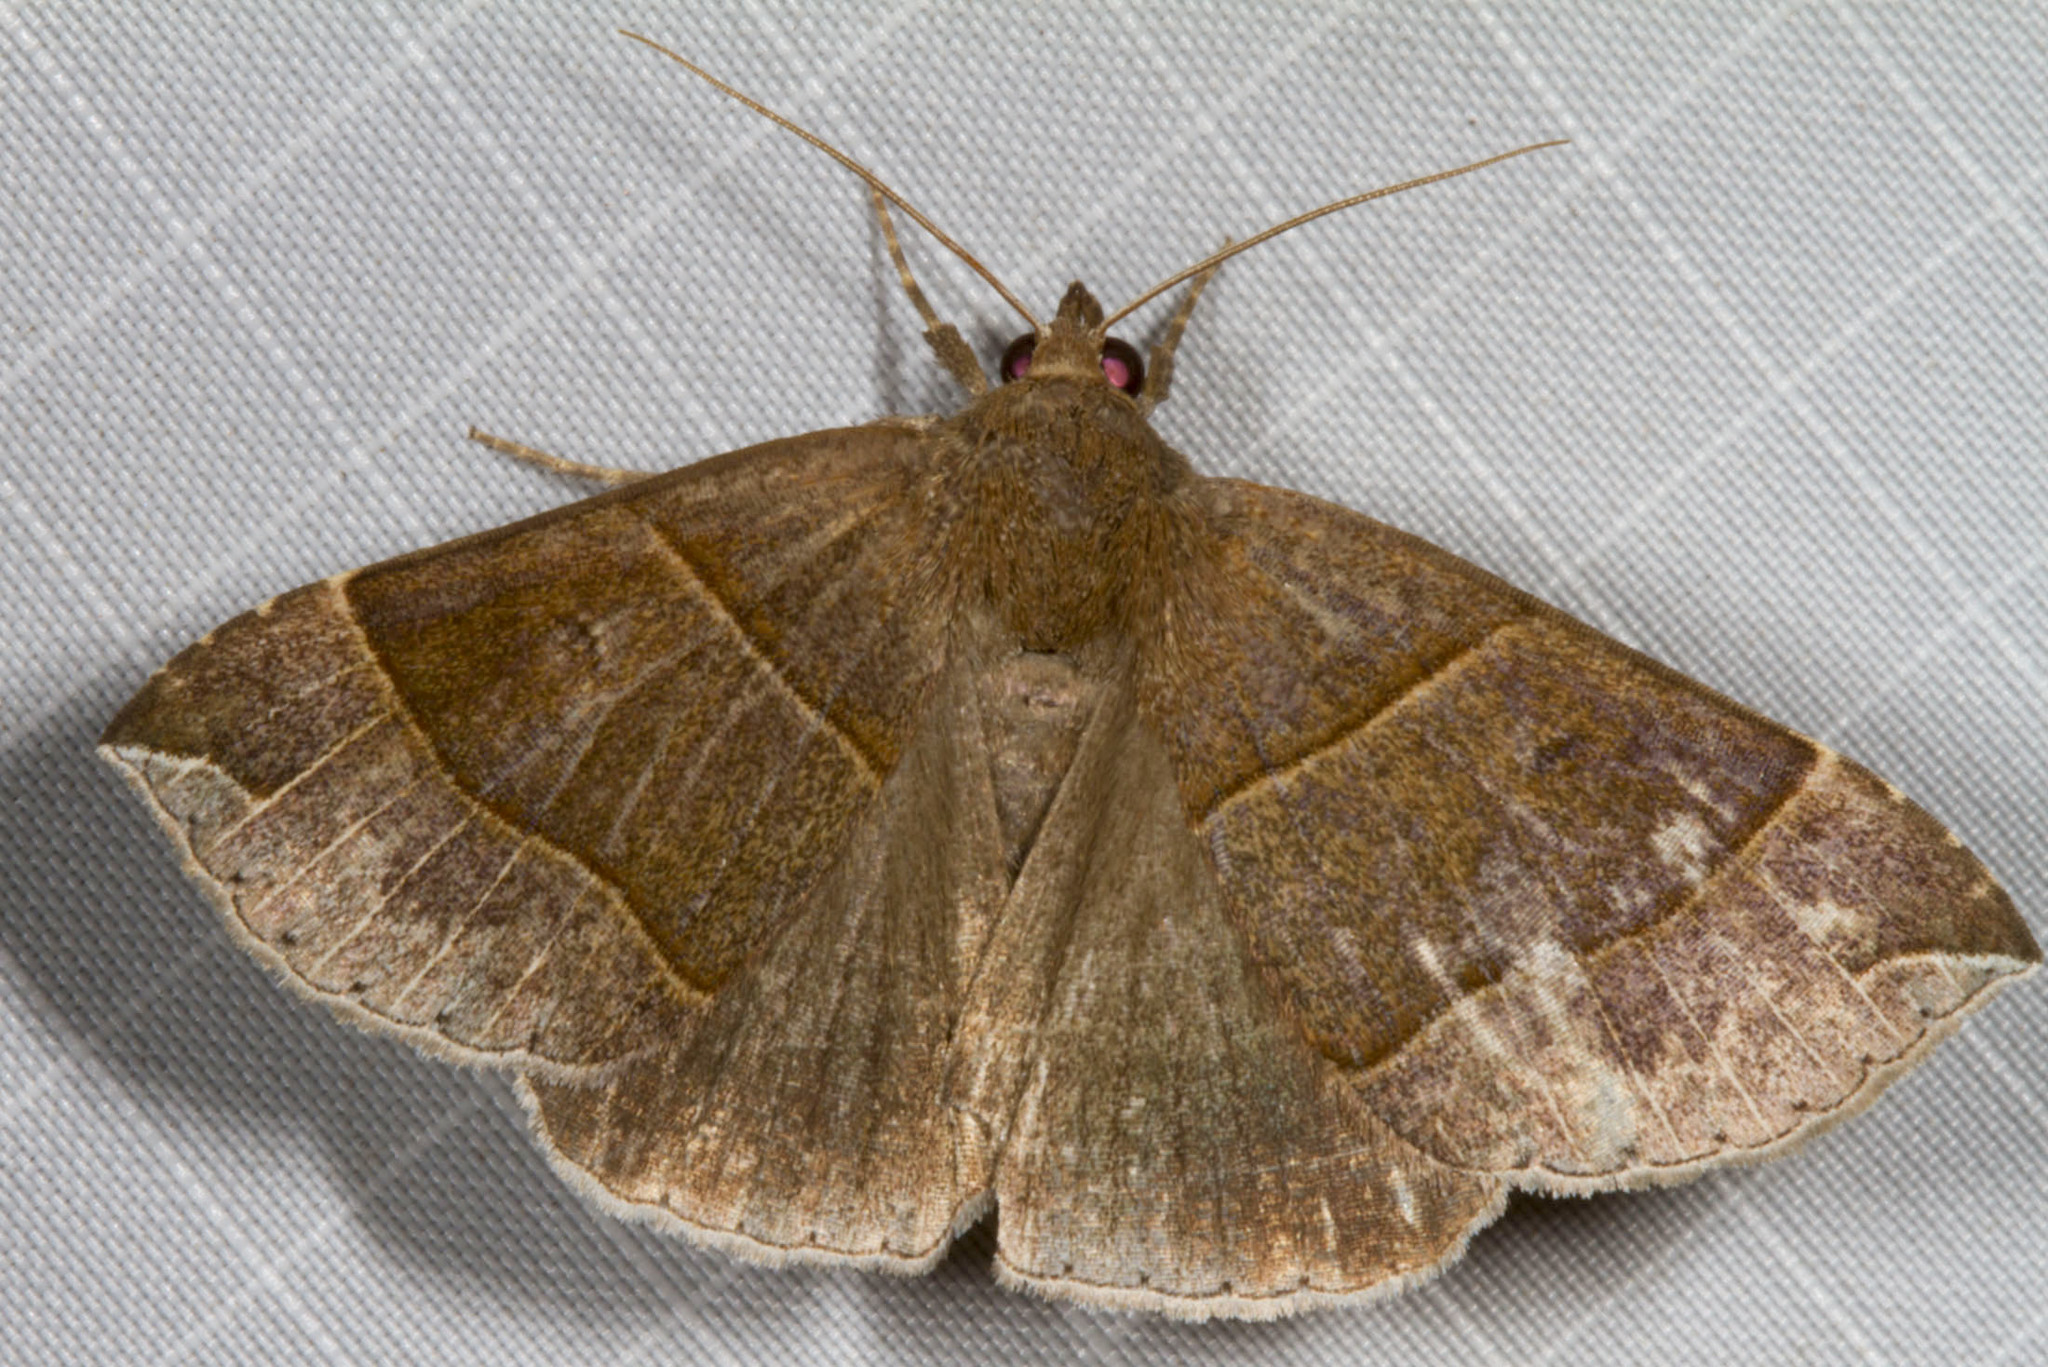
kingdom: Animalia
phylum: Arthropoda
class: Insecta
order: Lepidoptera
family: Erebidae
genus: Parallelia
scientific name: Parallelia bistriaris
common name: Maple looper moth
